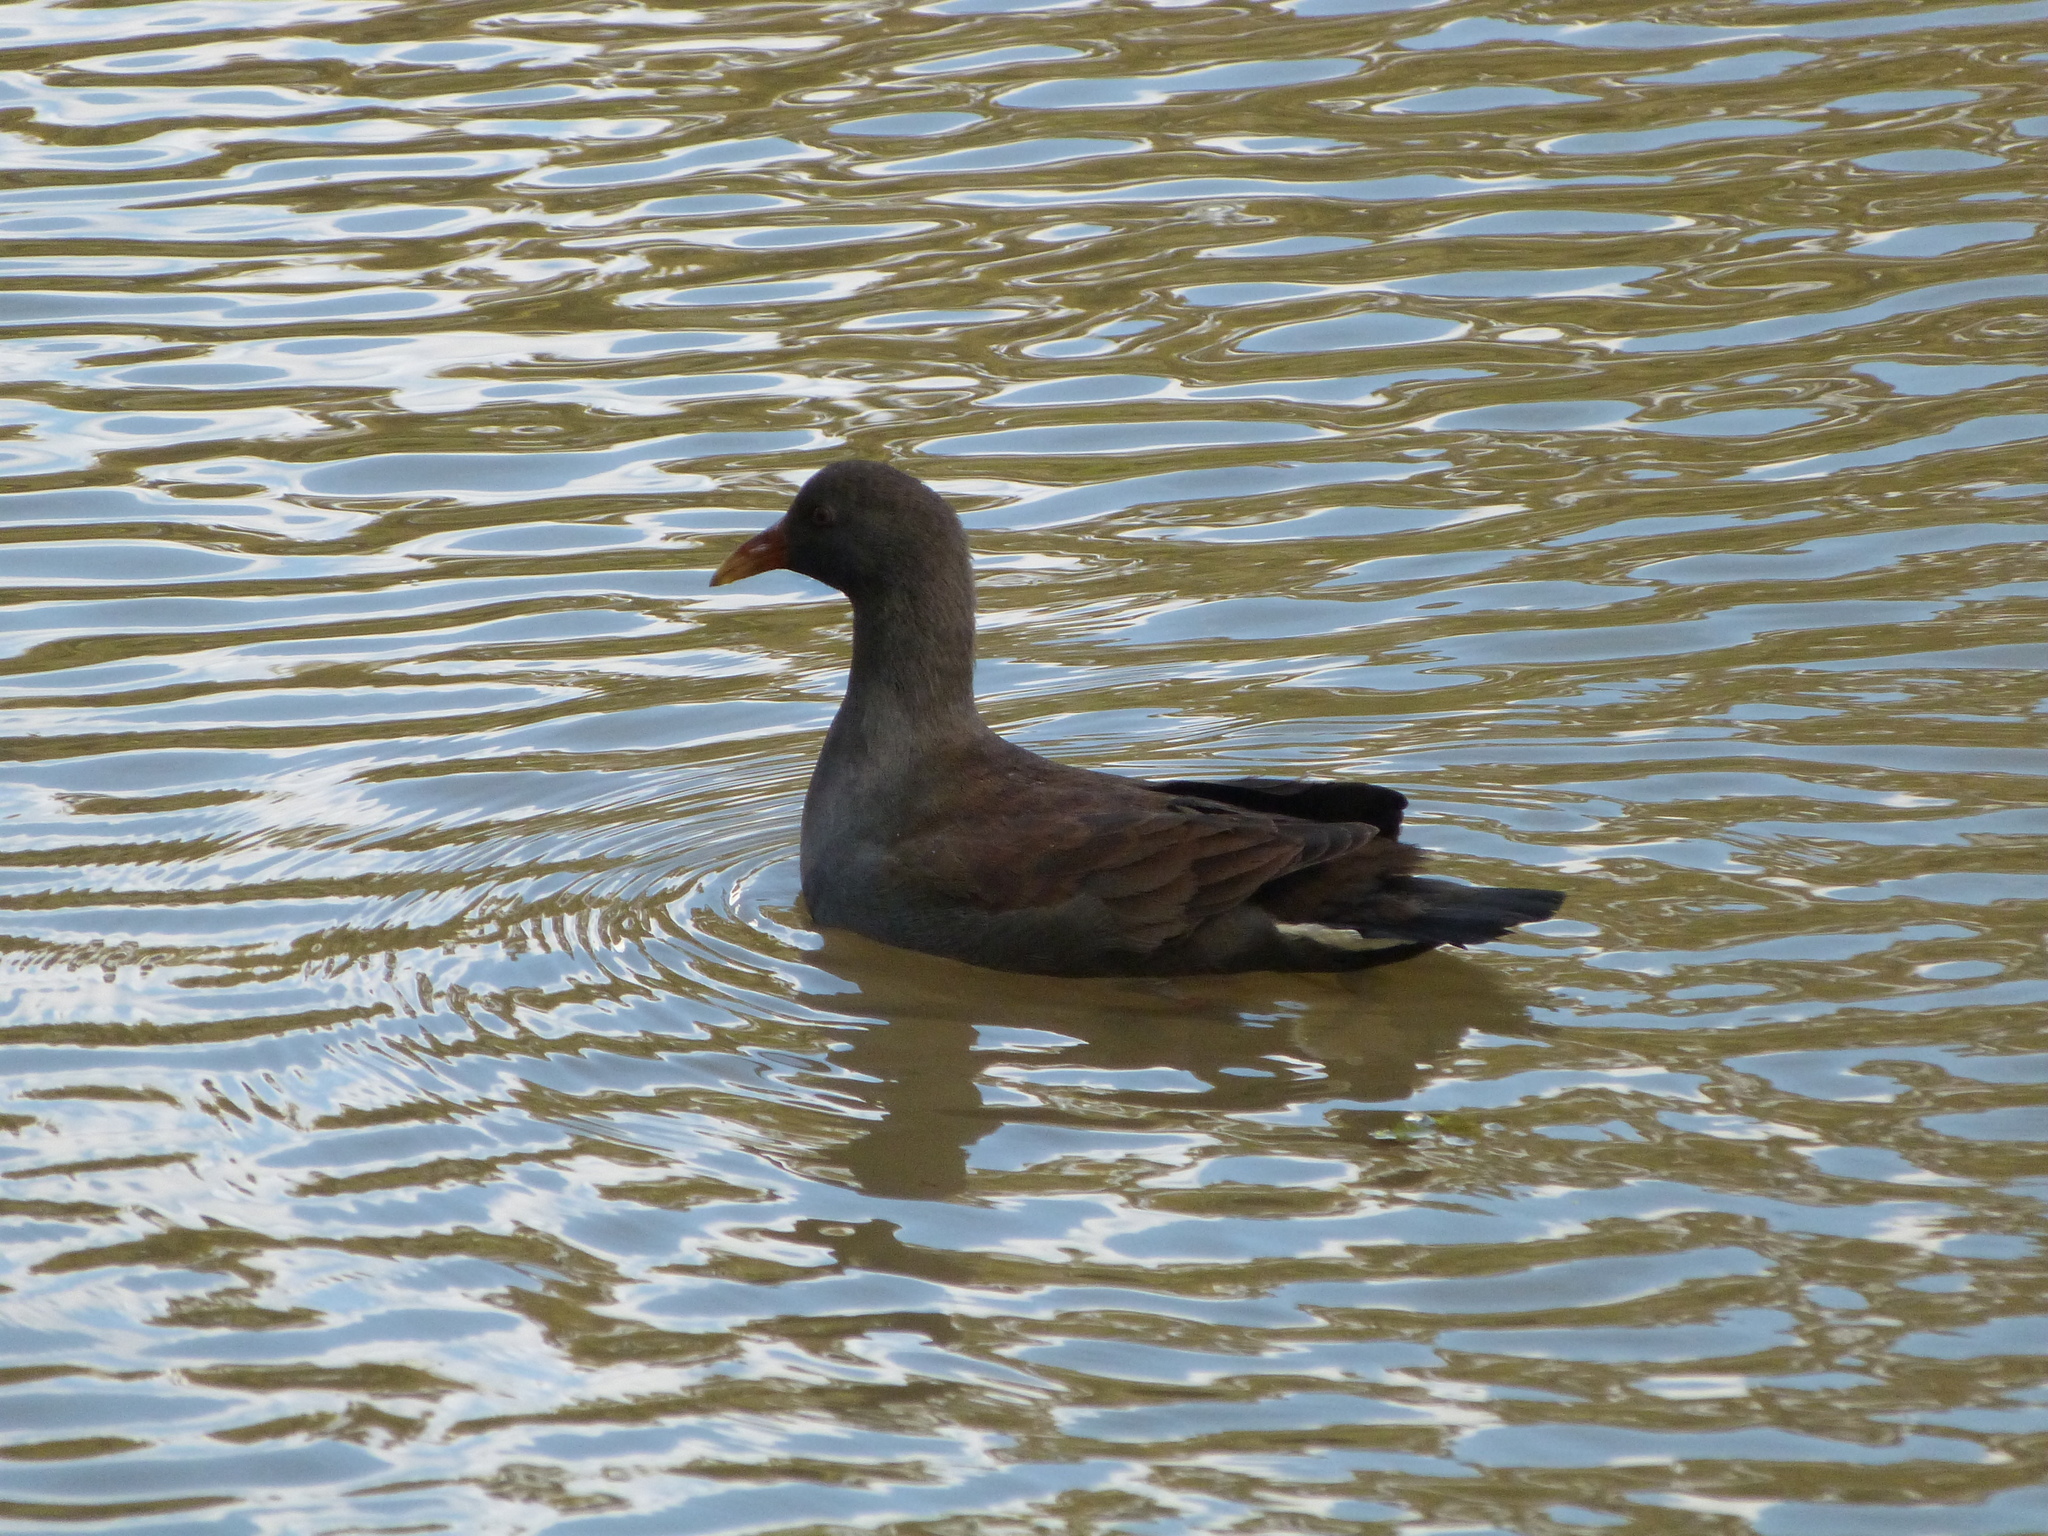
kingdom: Animalia
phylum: Chordata
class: Aves
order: Gruiformes
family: Rallidae
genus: Gallinula
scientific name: Gallinula tenebrosa
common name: Dusky moorhen
